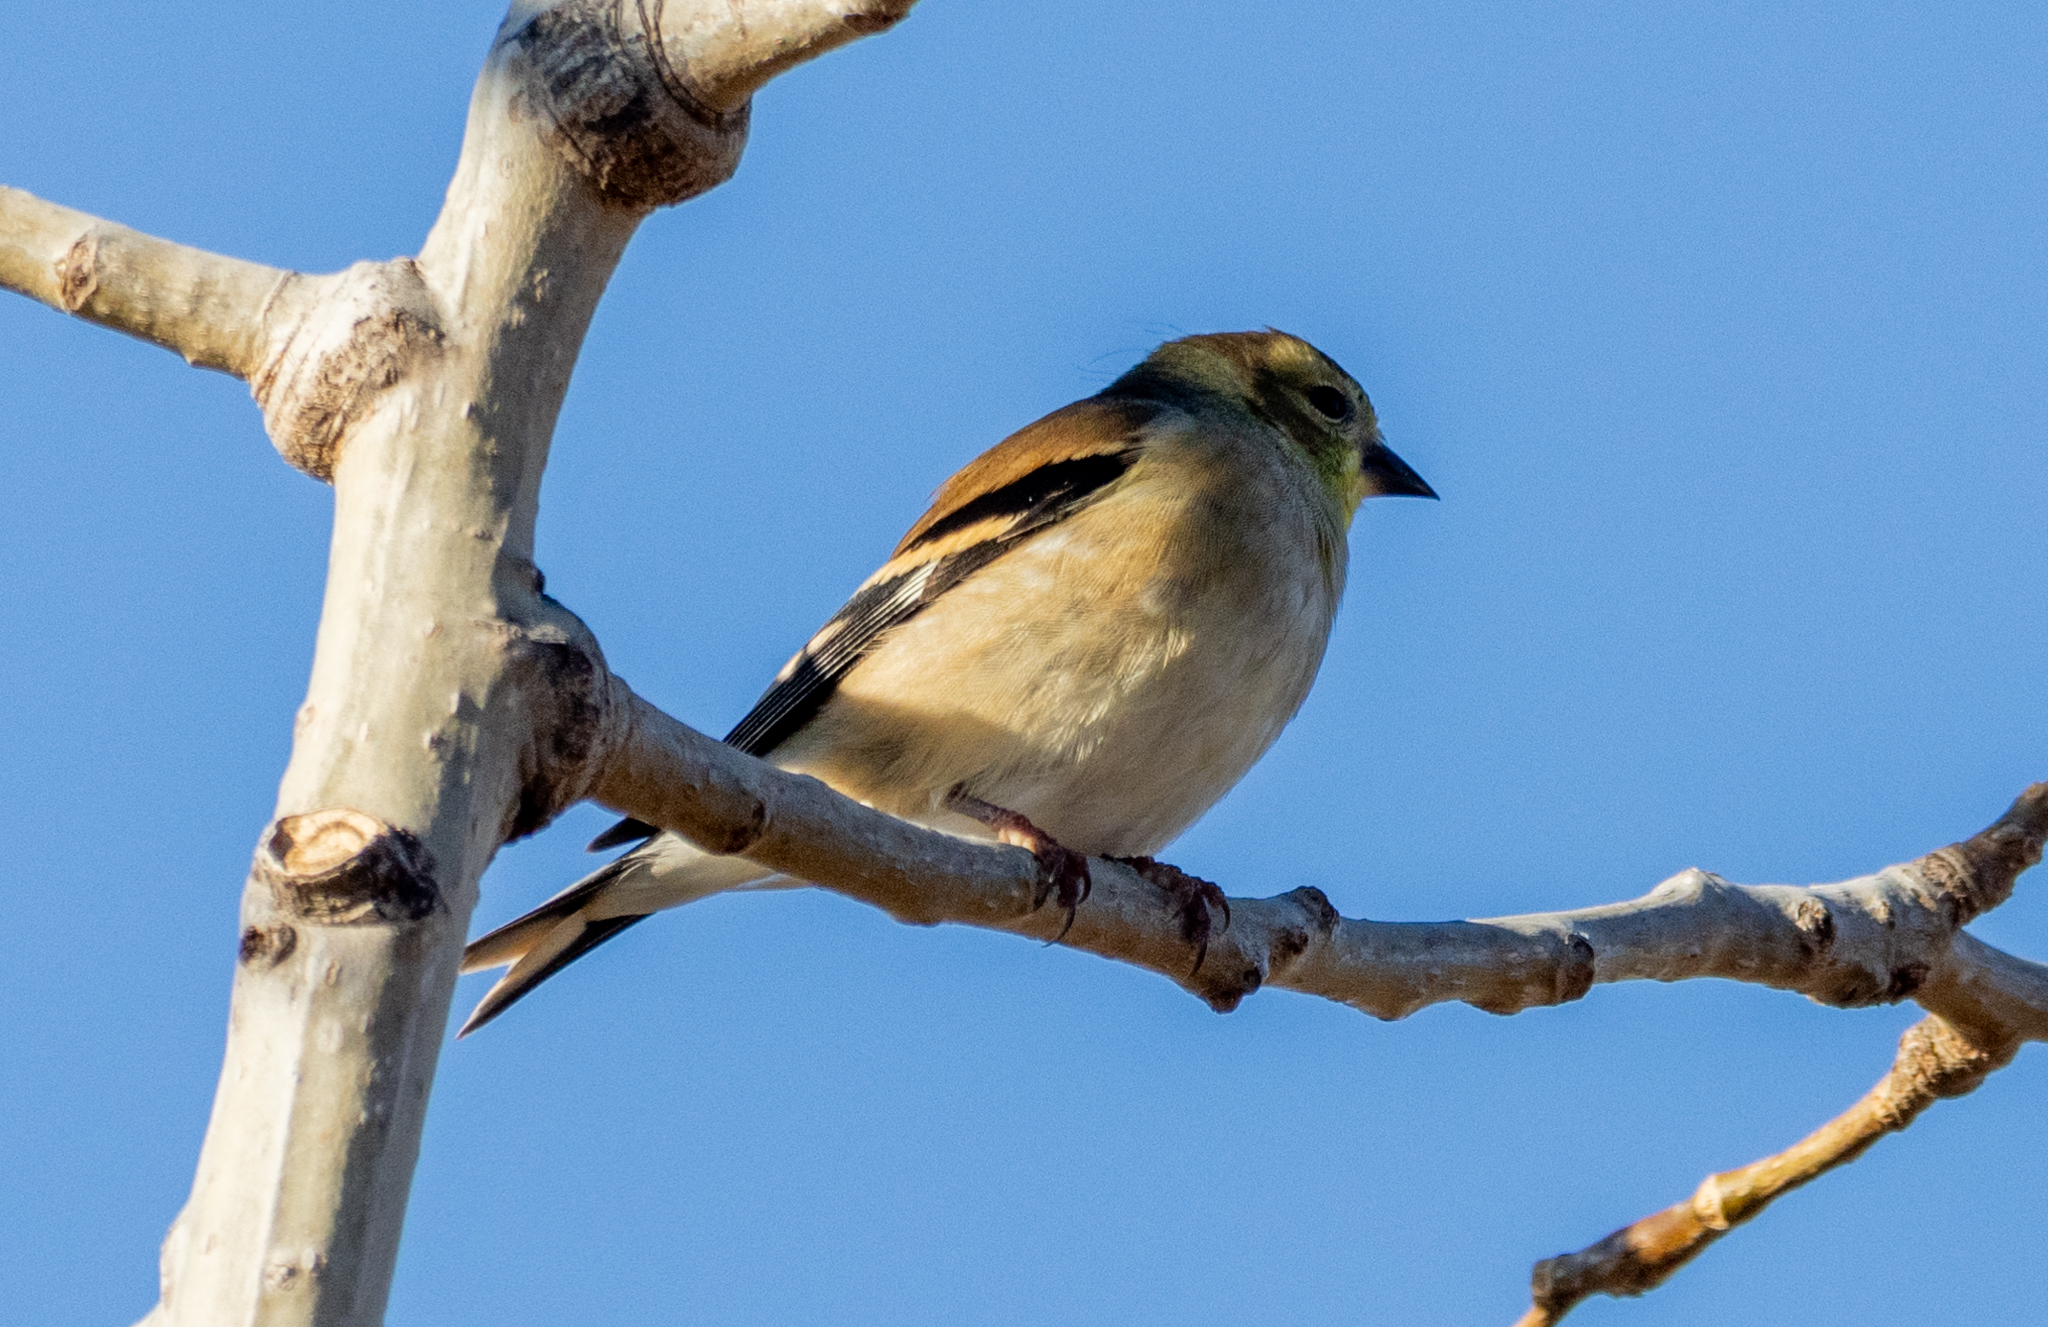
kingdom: Animalia
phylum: Chordata
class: Aves
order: Passeriformes
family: Fringillidae
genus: Spinus
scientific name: Spinus tristis
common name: American goldfinch
